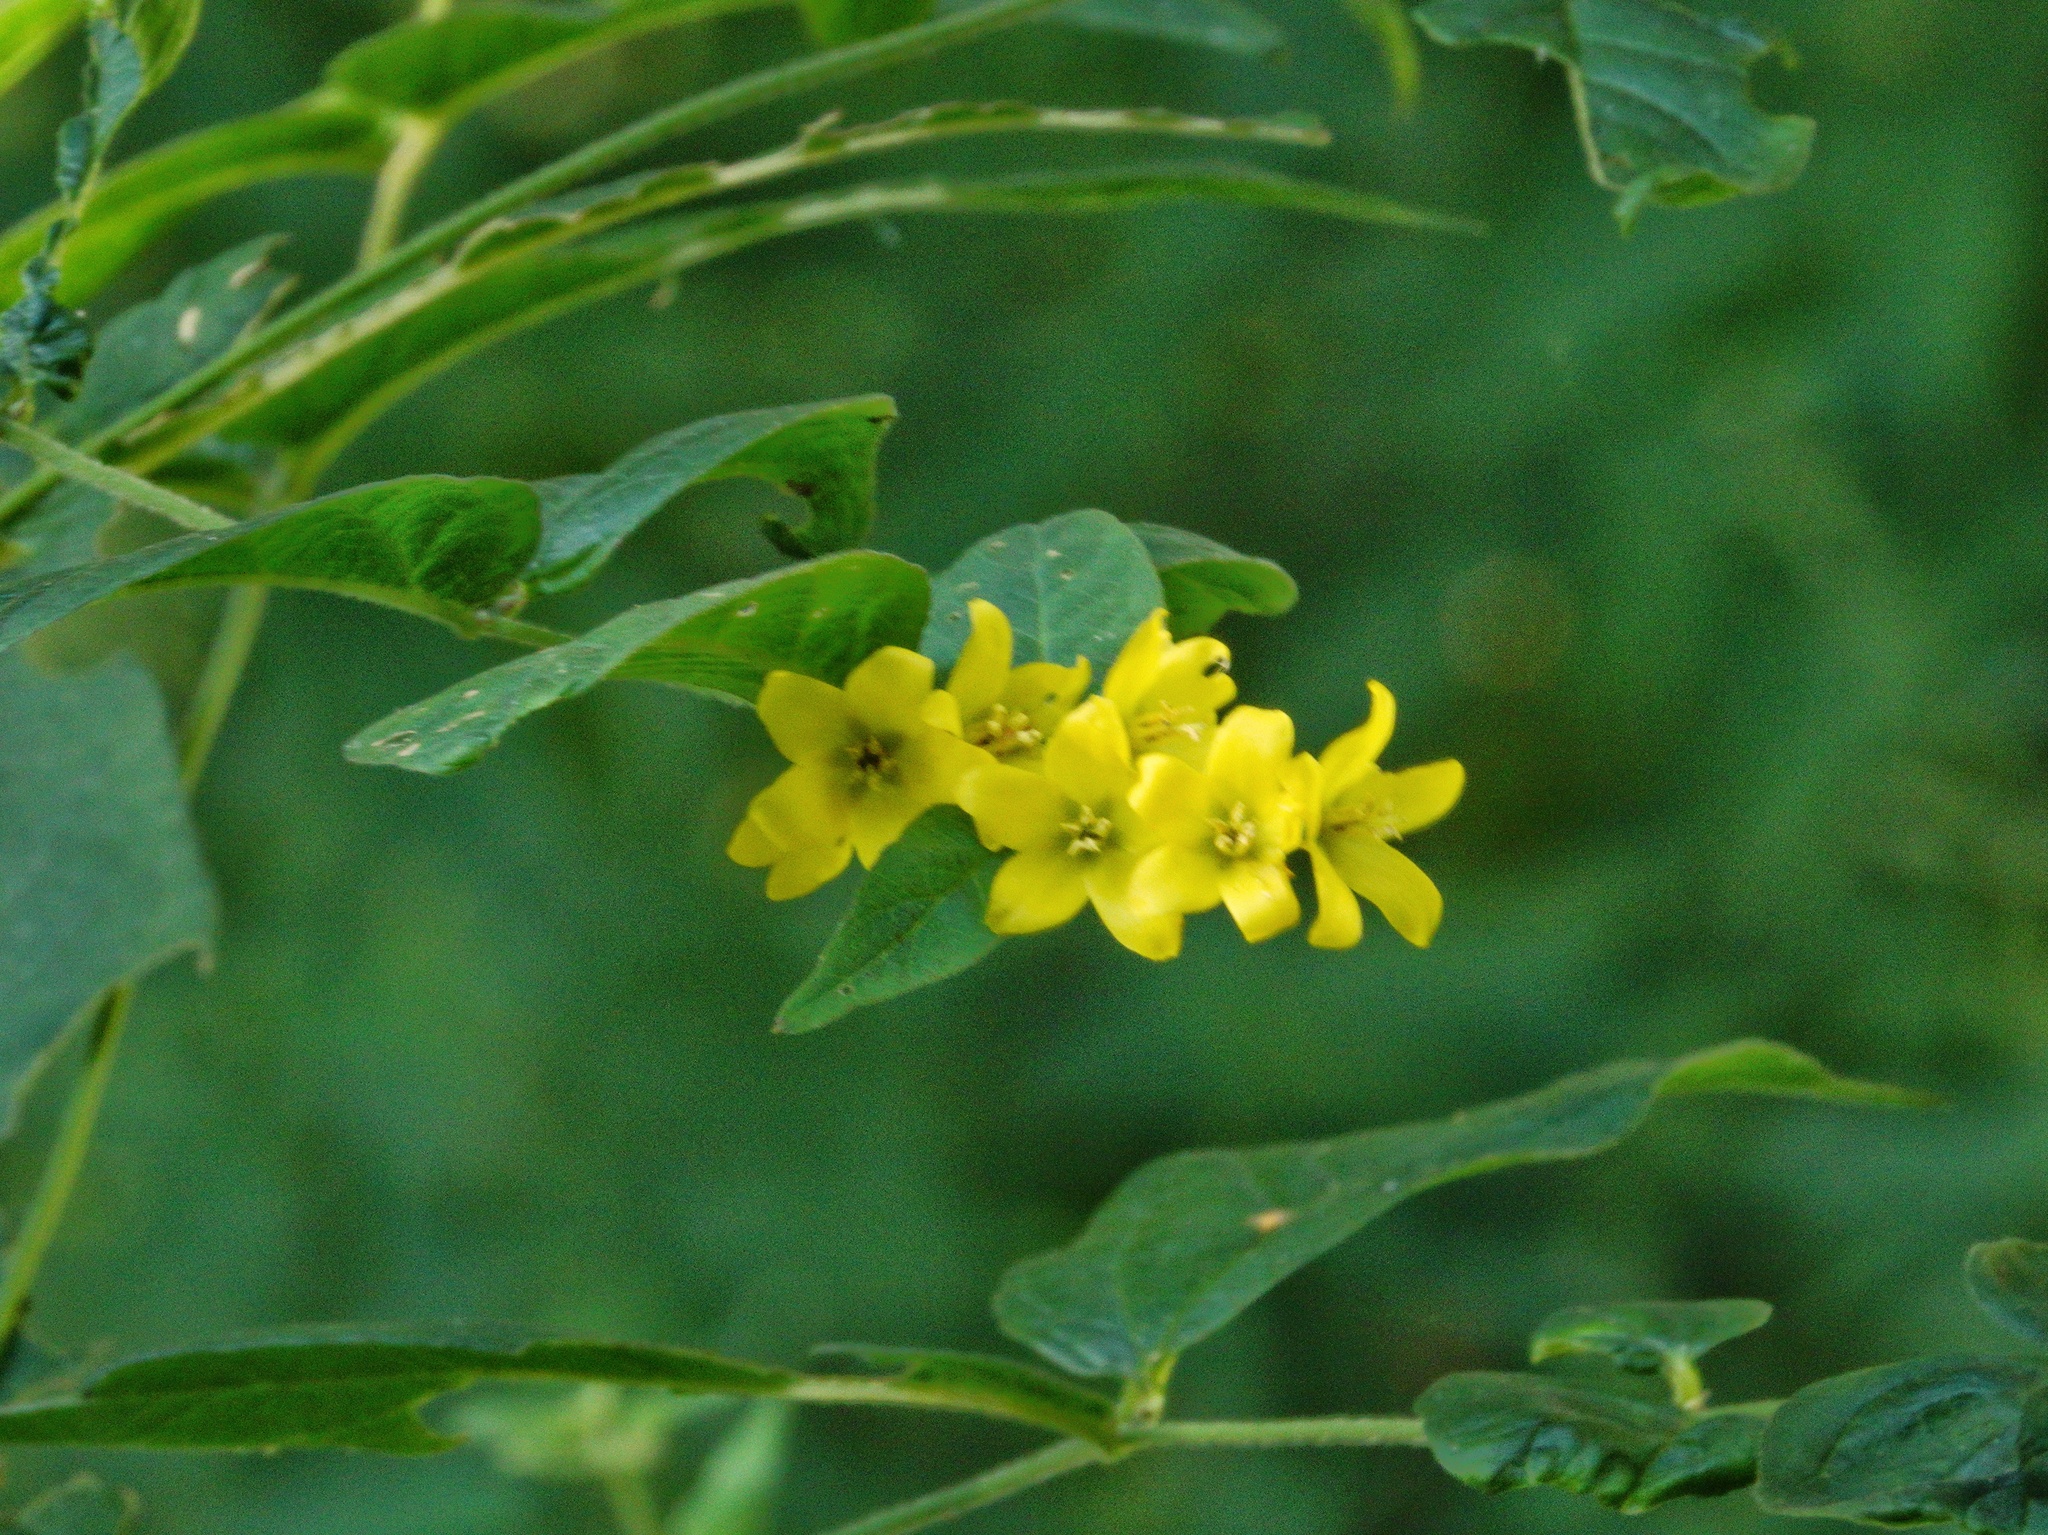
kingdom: Plantae
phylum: Tracheophyta
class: Magnoliopsida
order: Ericales
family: Primulaceae
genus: Lysimachia
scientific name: Lysimachia vulgaris
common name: Yellow loosestrife
